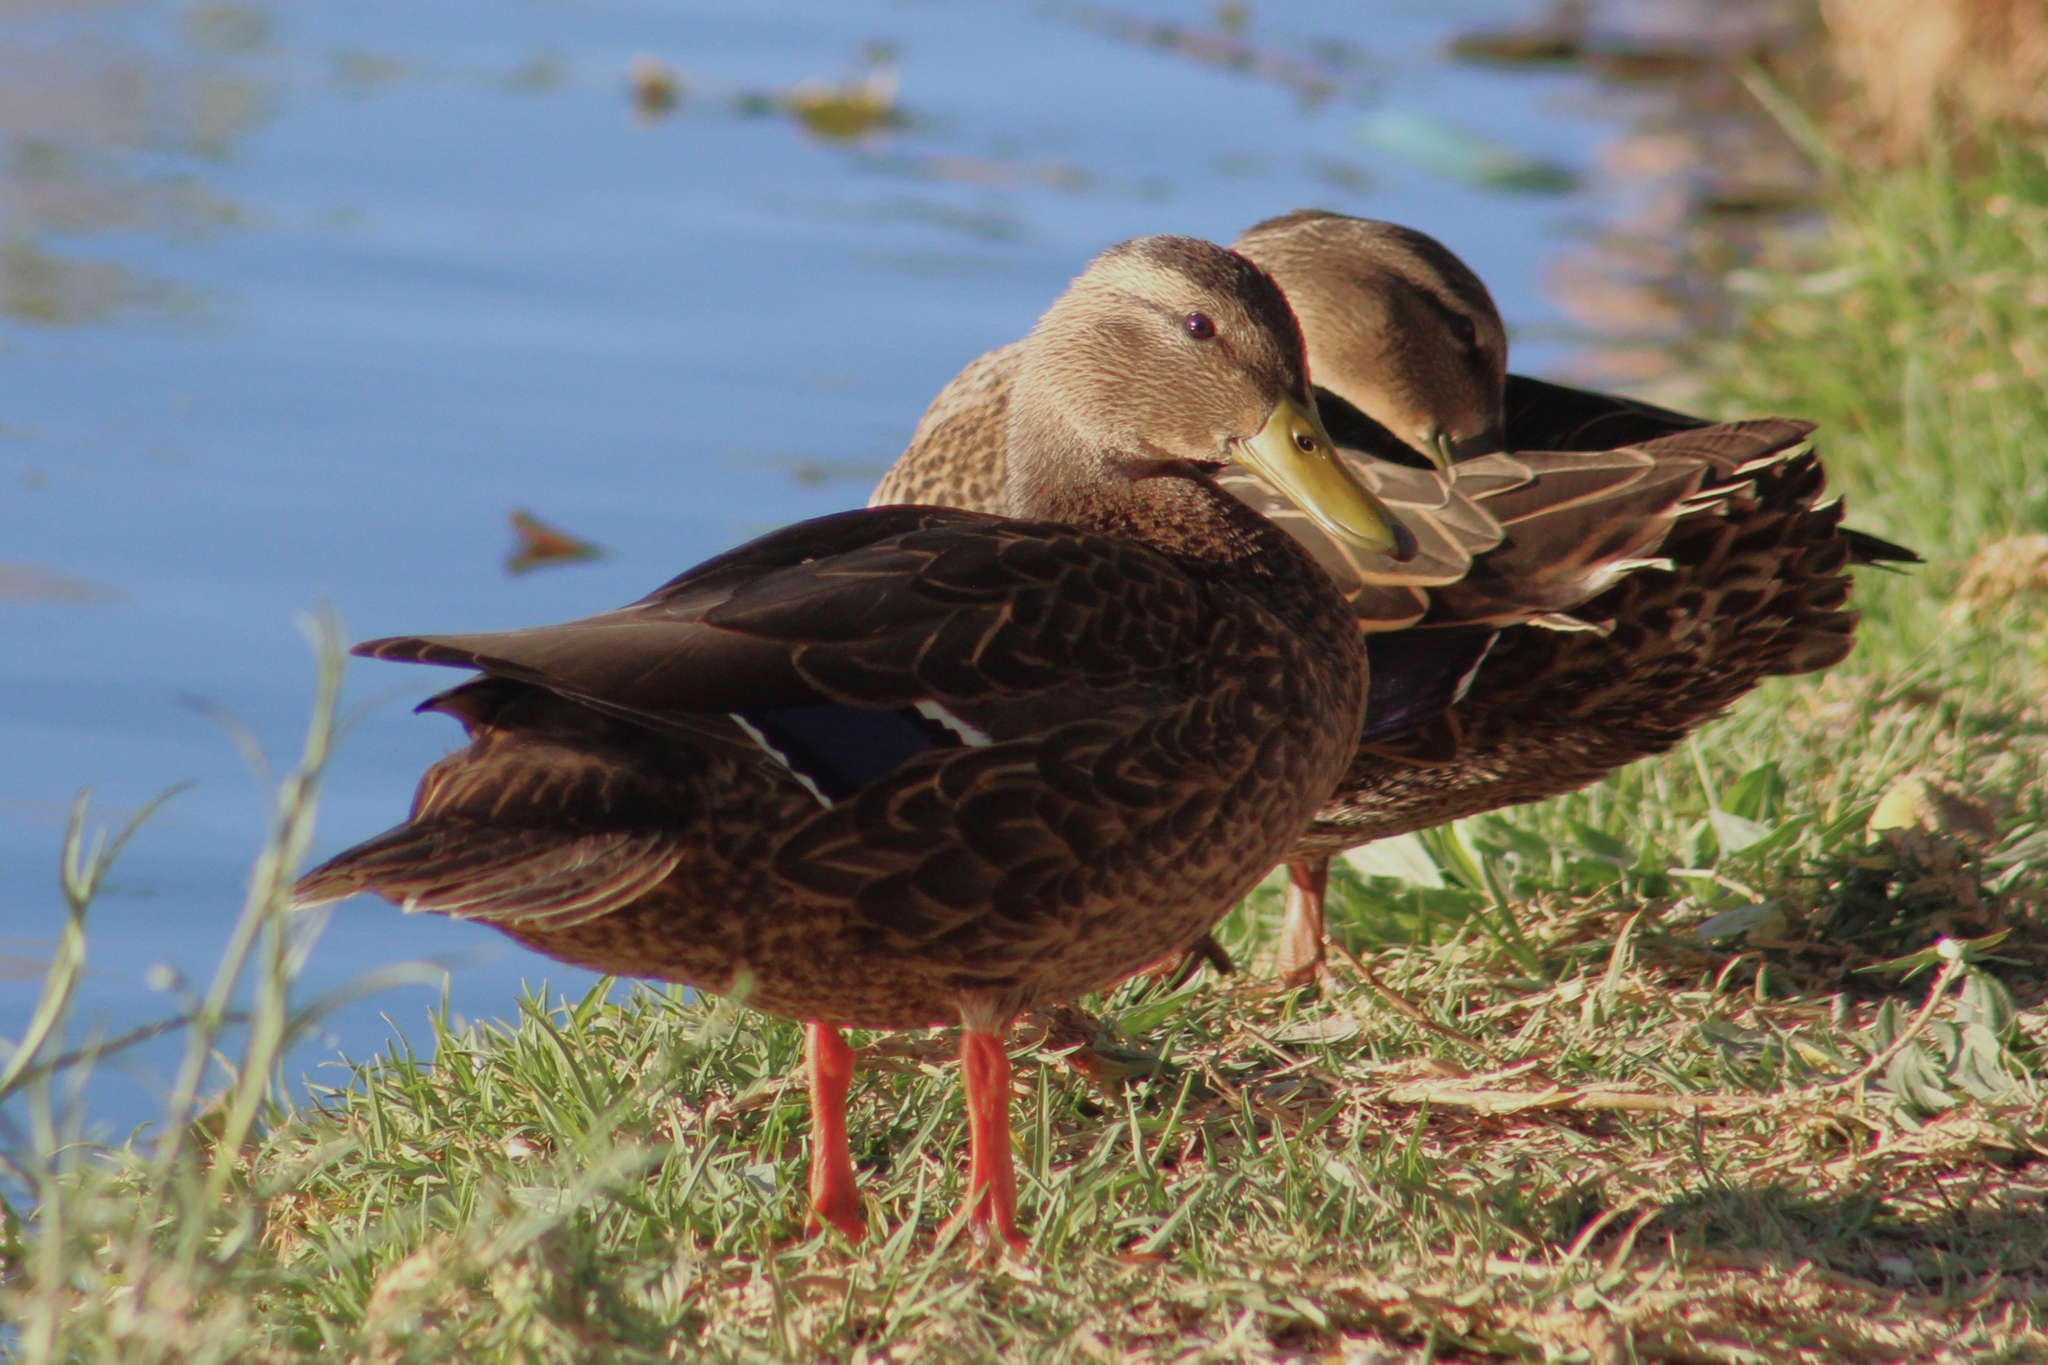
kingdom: Animalia
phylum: Chordata
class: Aves
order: Anseriformes
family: Anatidae
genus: Anas
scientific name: Anas diazi
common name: Mexican duck
